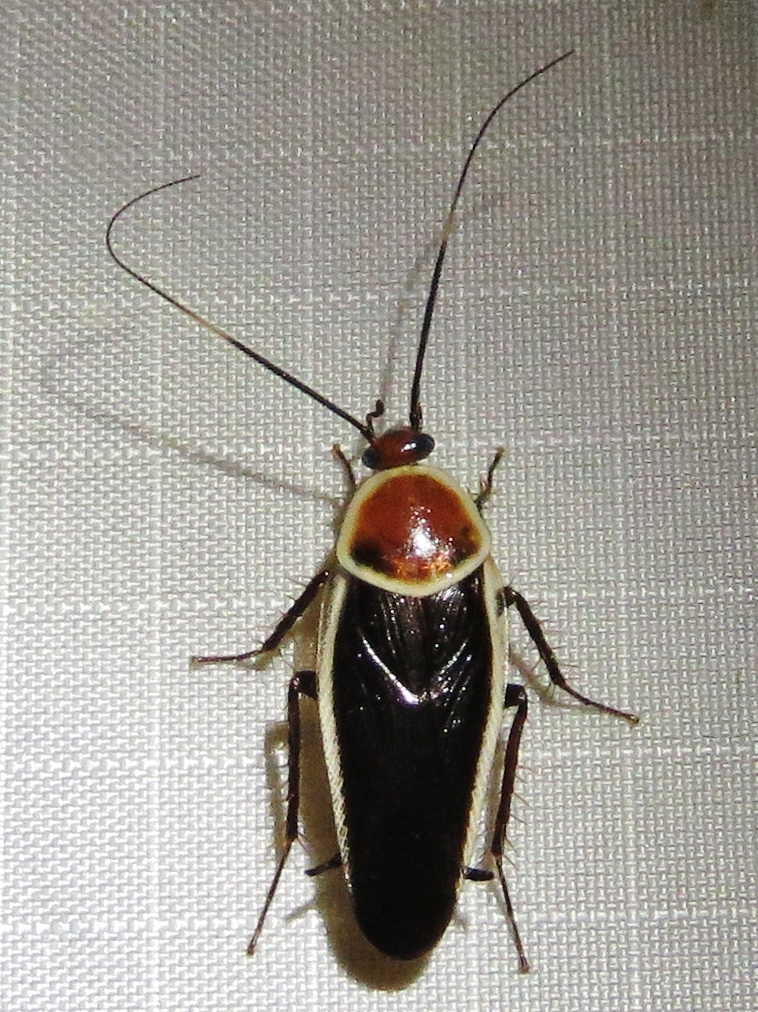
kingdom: Animalia
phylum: Arthropoda
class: Insecta
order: Blattodea
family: Ectobiidae
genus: Pseudomops
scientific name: Pseudomops septentrionalis
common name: Pale-bordered field cockroach
